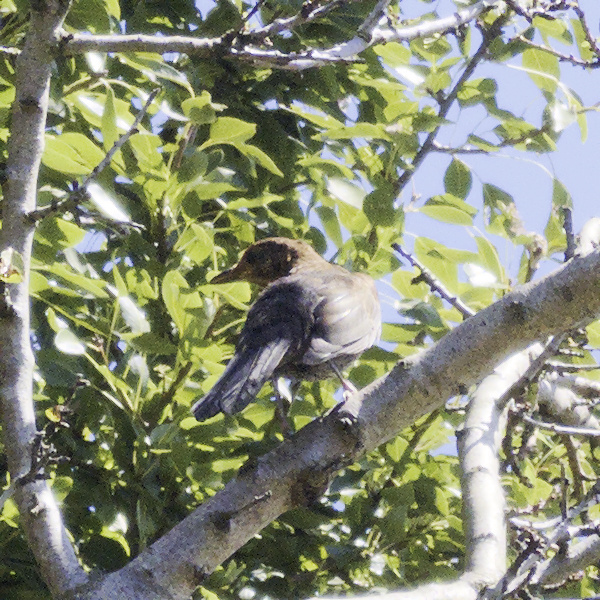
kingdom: Animalia
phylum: Chordata
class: Aves
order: Passeriformes
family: Turdidae
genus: Turdus
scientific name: Turdus merula
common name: Common blackbird
